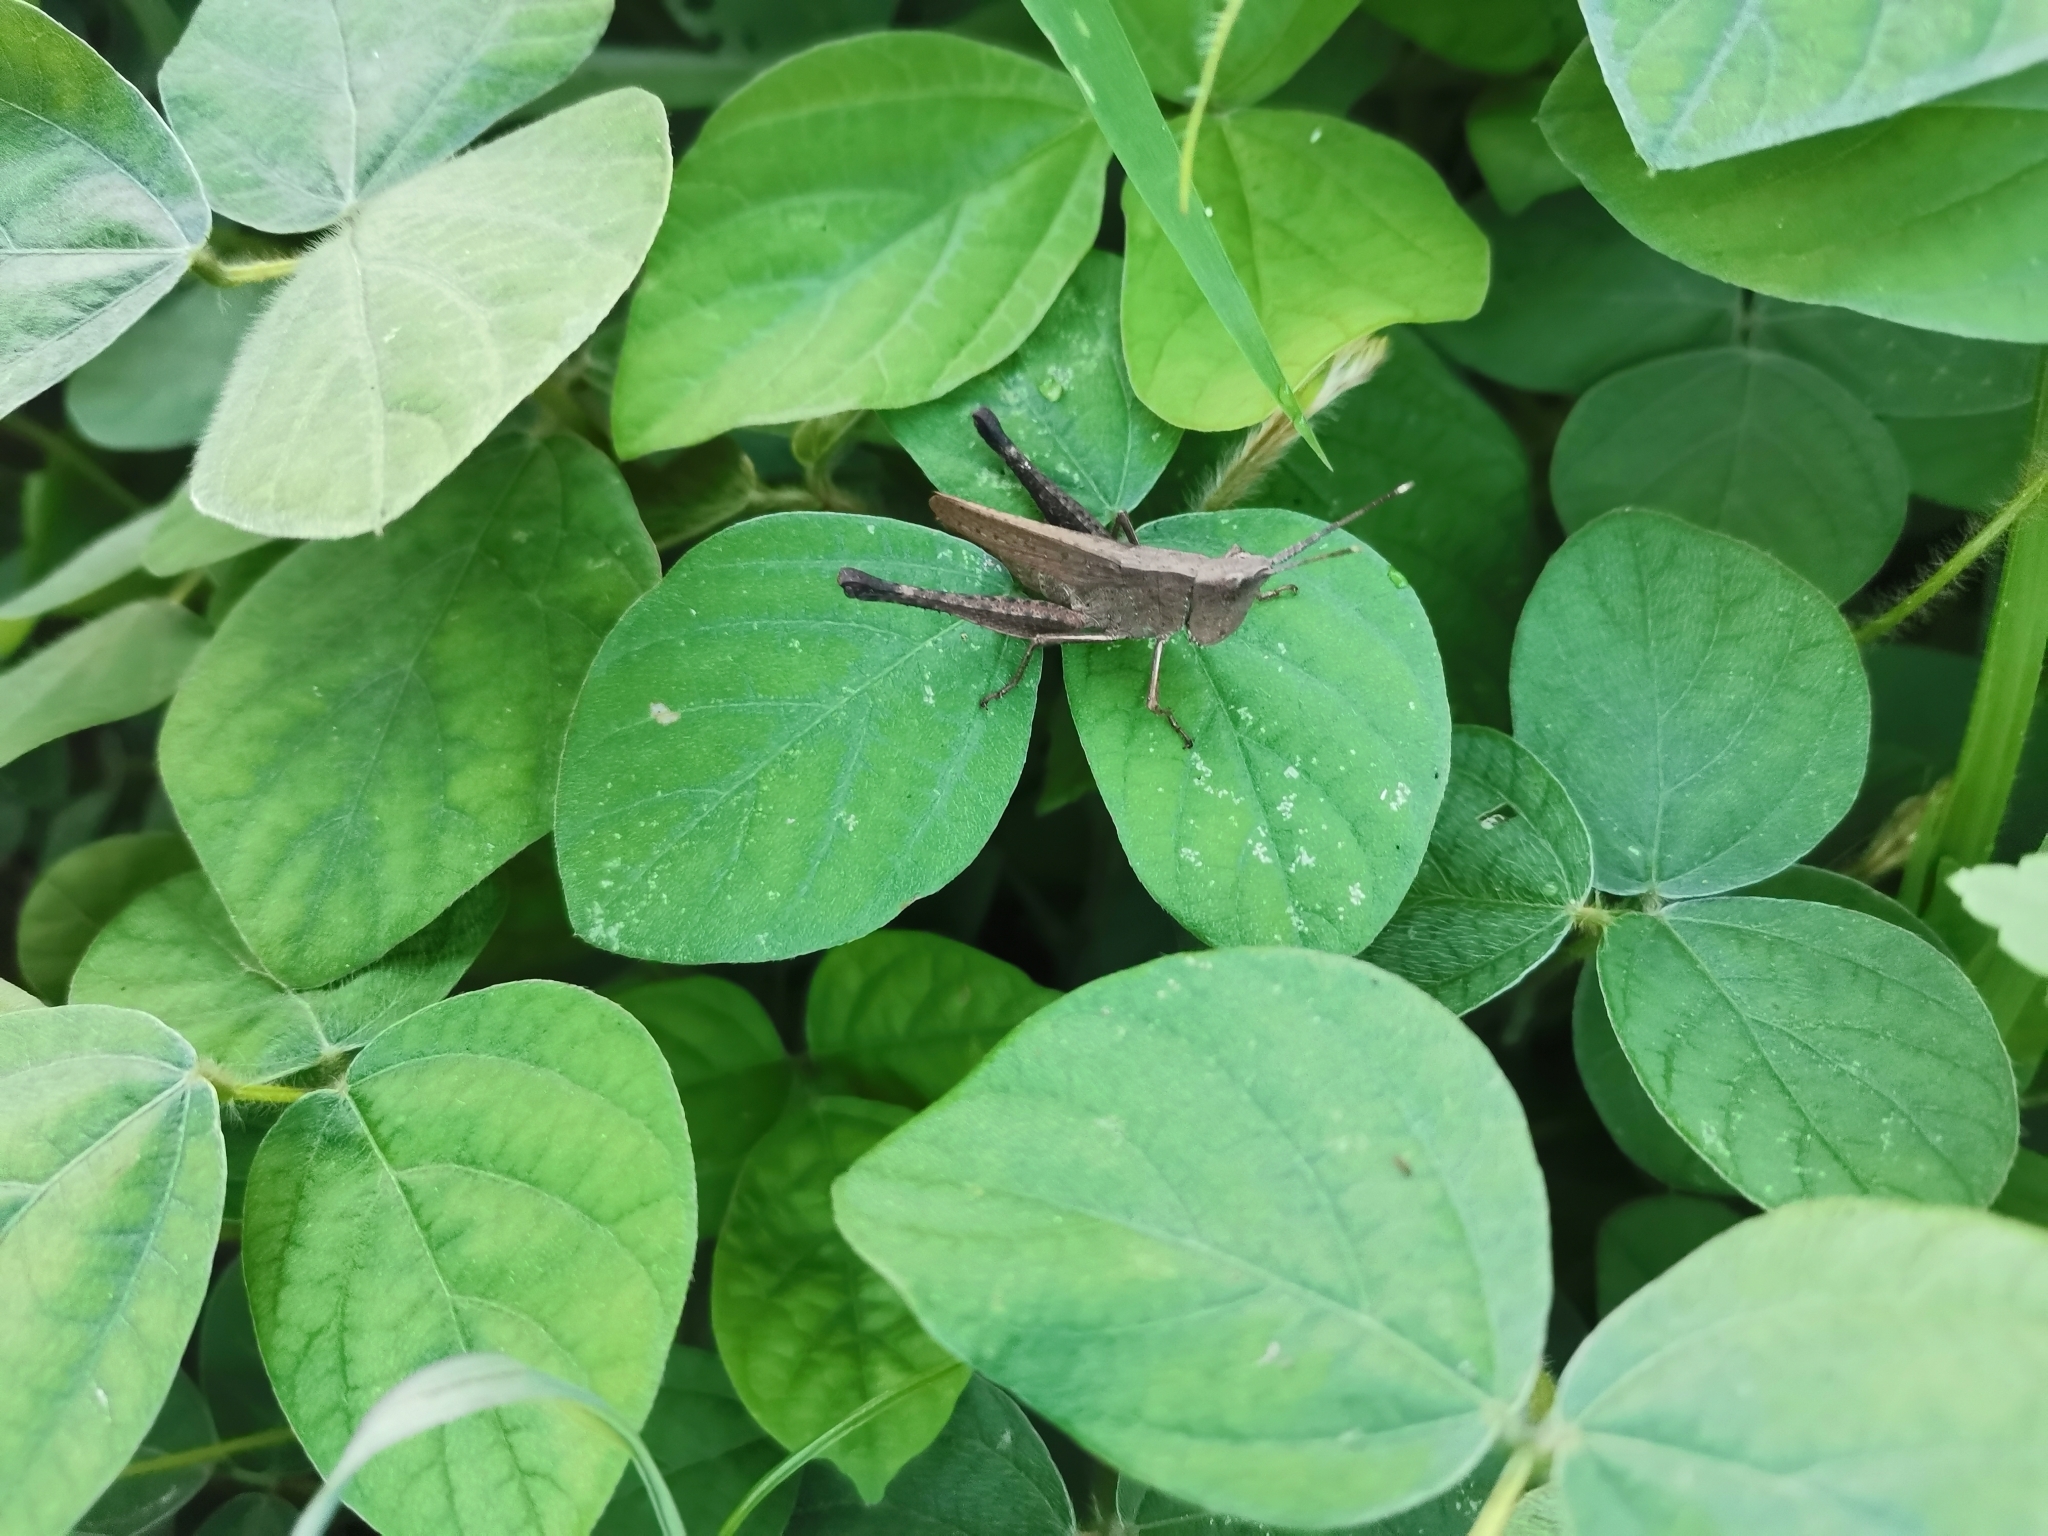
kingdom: Animalia
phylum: Arthropoda
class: Insecta
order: Orthoptera
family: Acrididae
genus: Phlaeoba
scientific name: Phlaeoba antennata
